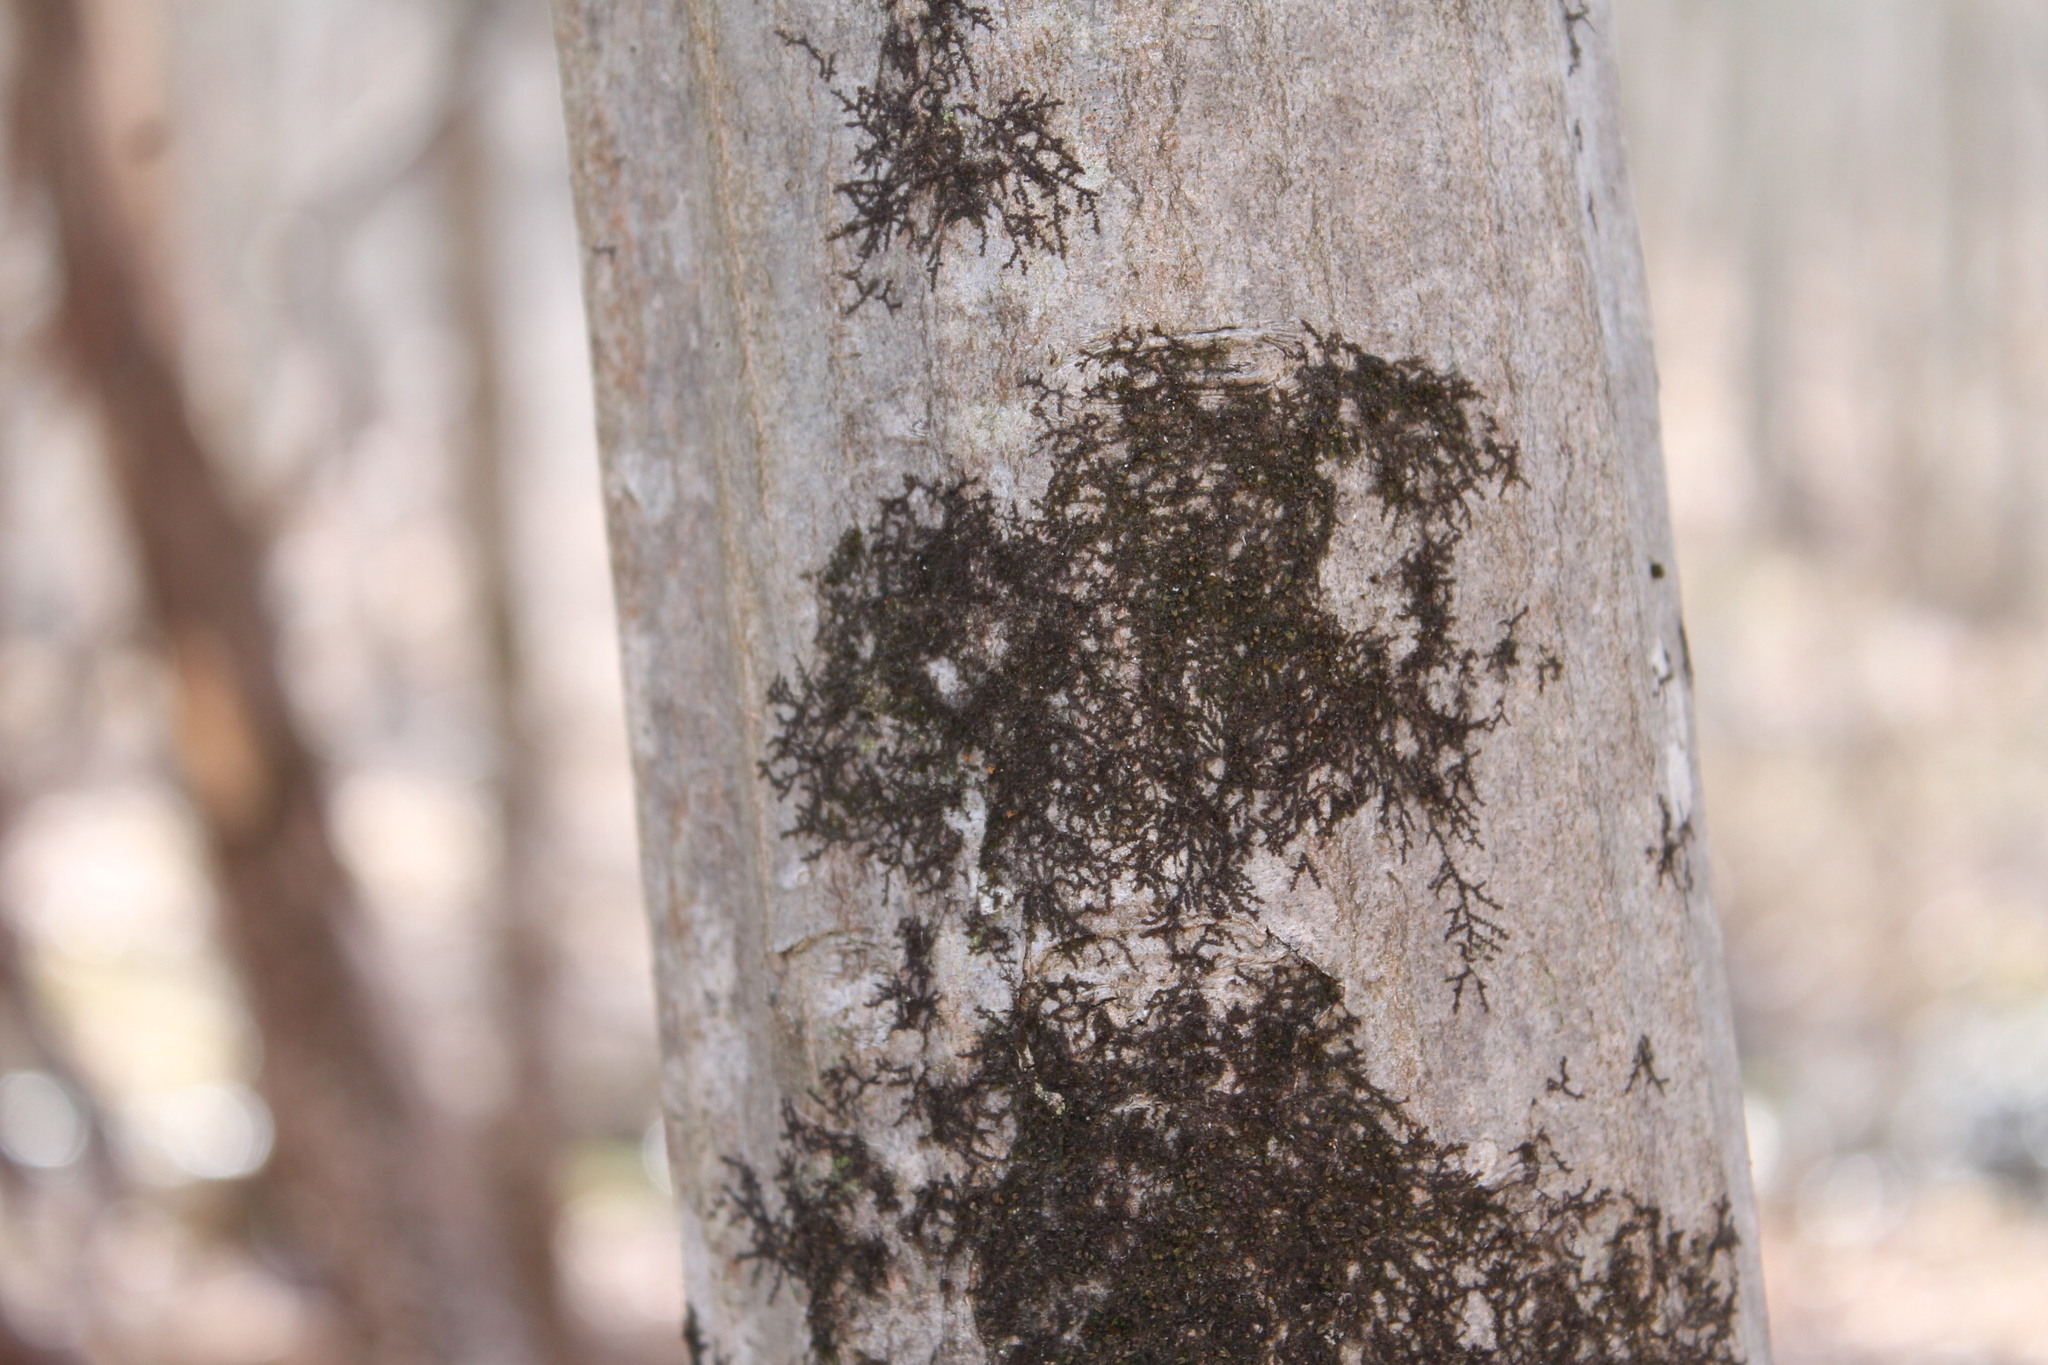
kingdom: Plantae
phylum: Marchantiophyta
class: Jungermanniopsida
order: Porellales
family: Frullaniaceae
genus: Frullania
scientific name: Frullania eboracensis
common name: New york scalewort
